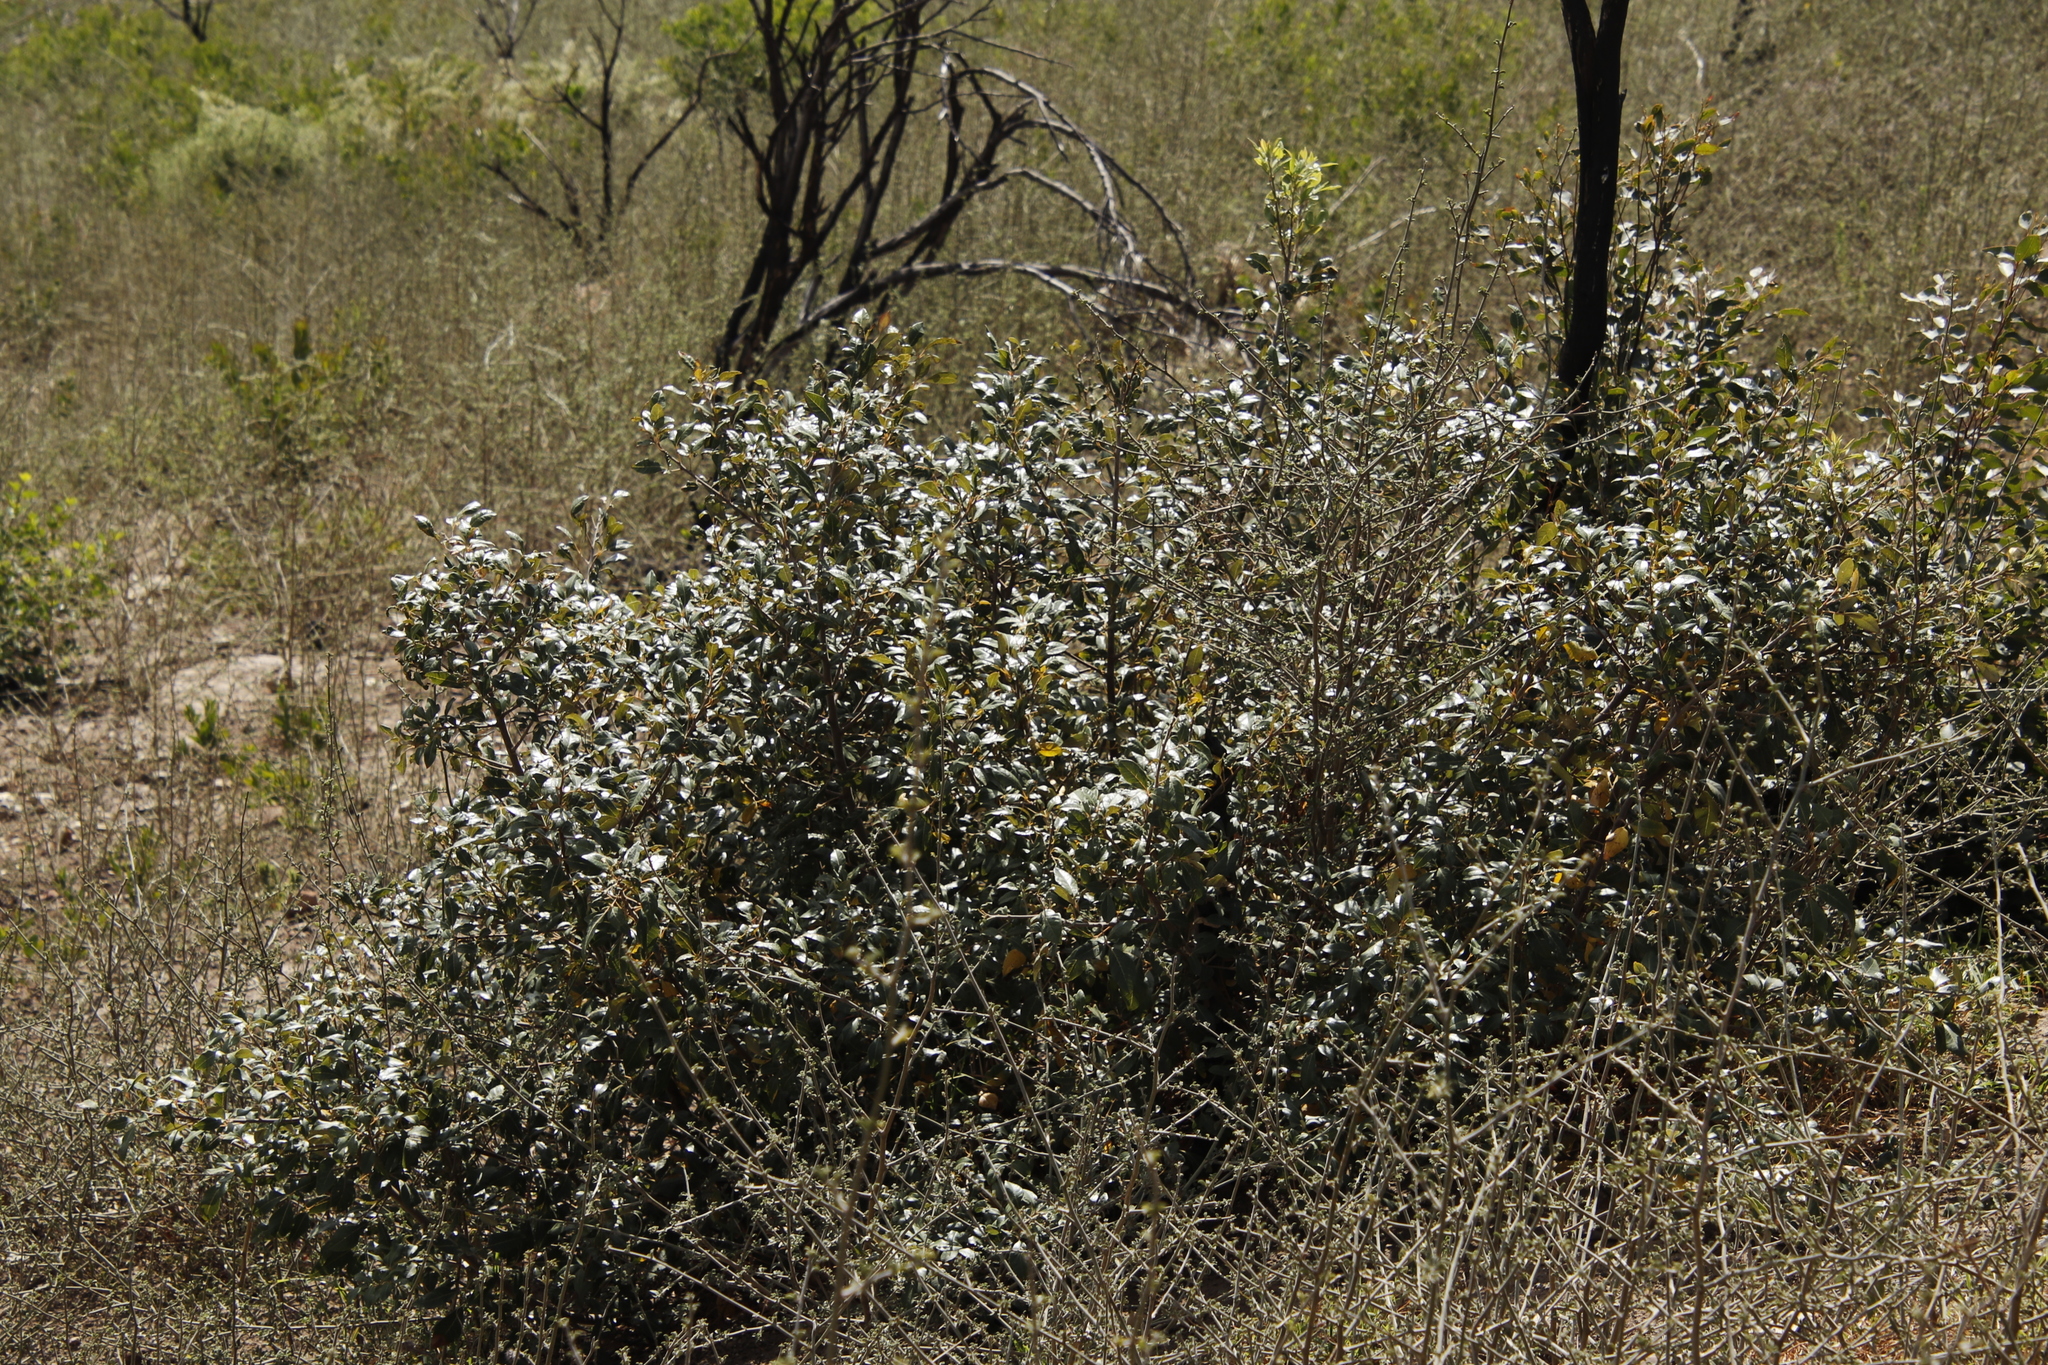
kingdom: Plantae
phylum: Tracheophyta
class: Magnoliopsida
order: Sapindales
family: Anacardiaceae
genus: Searsia
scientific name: Searsia tomentosa
